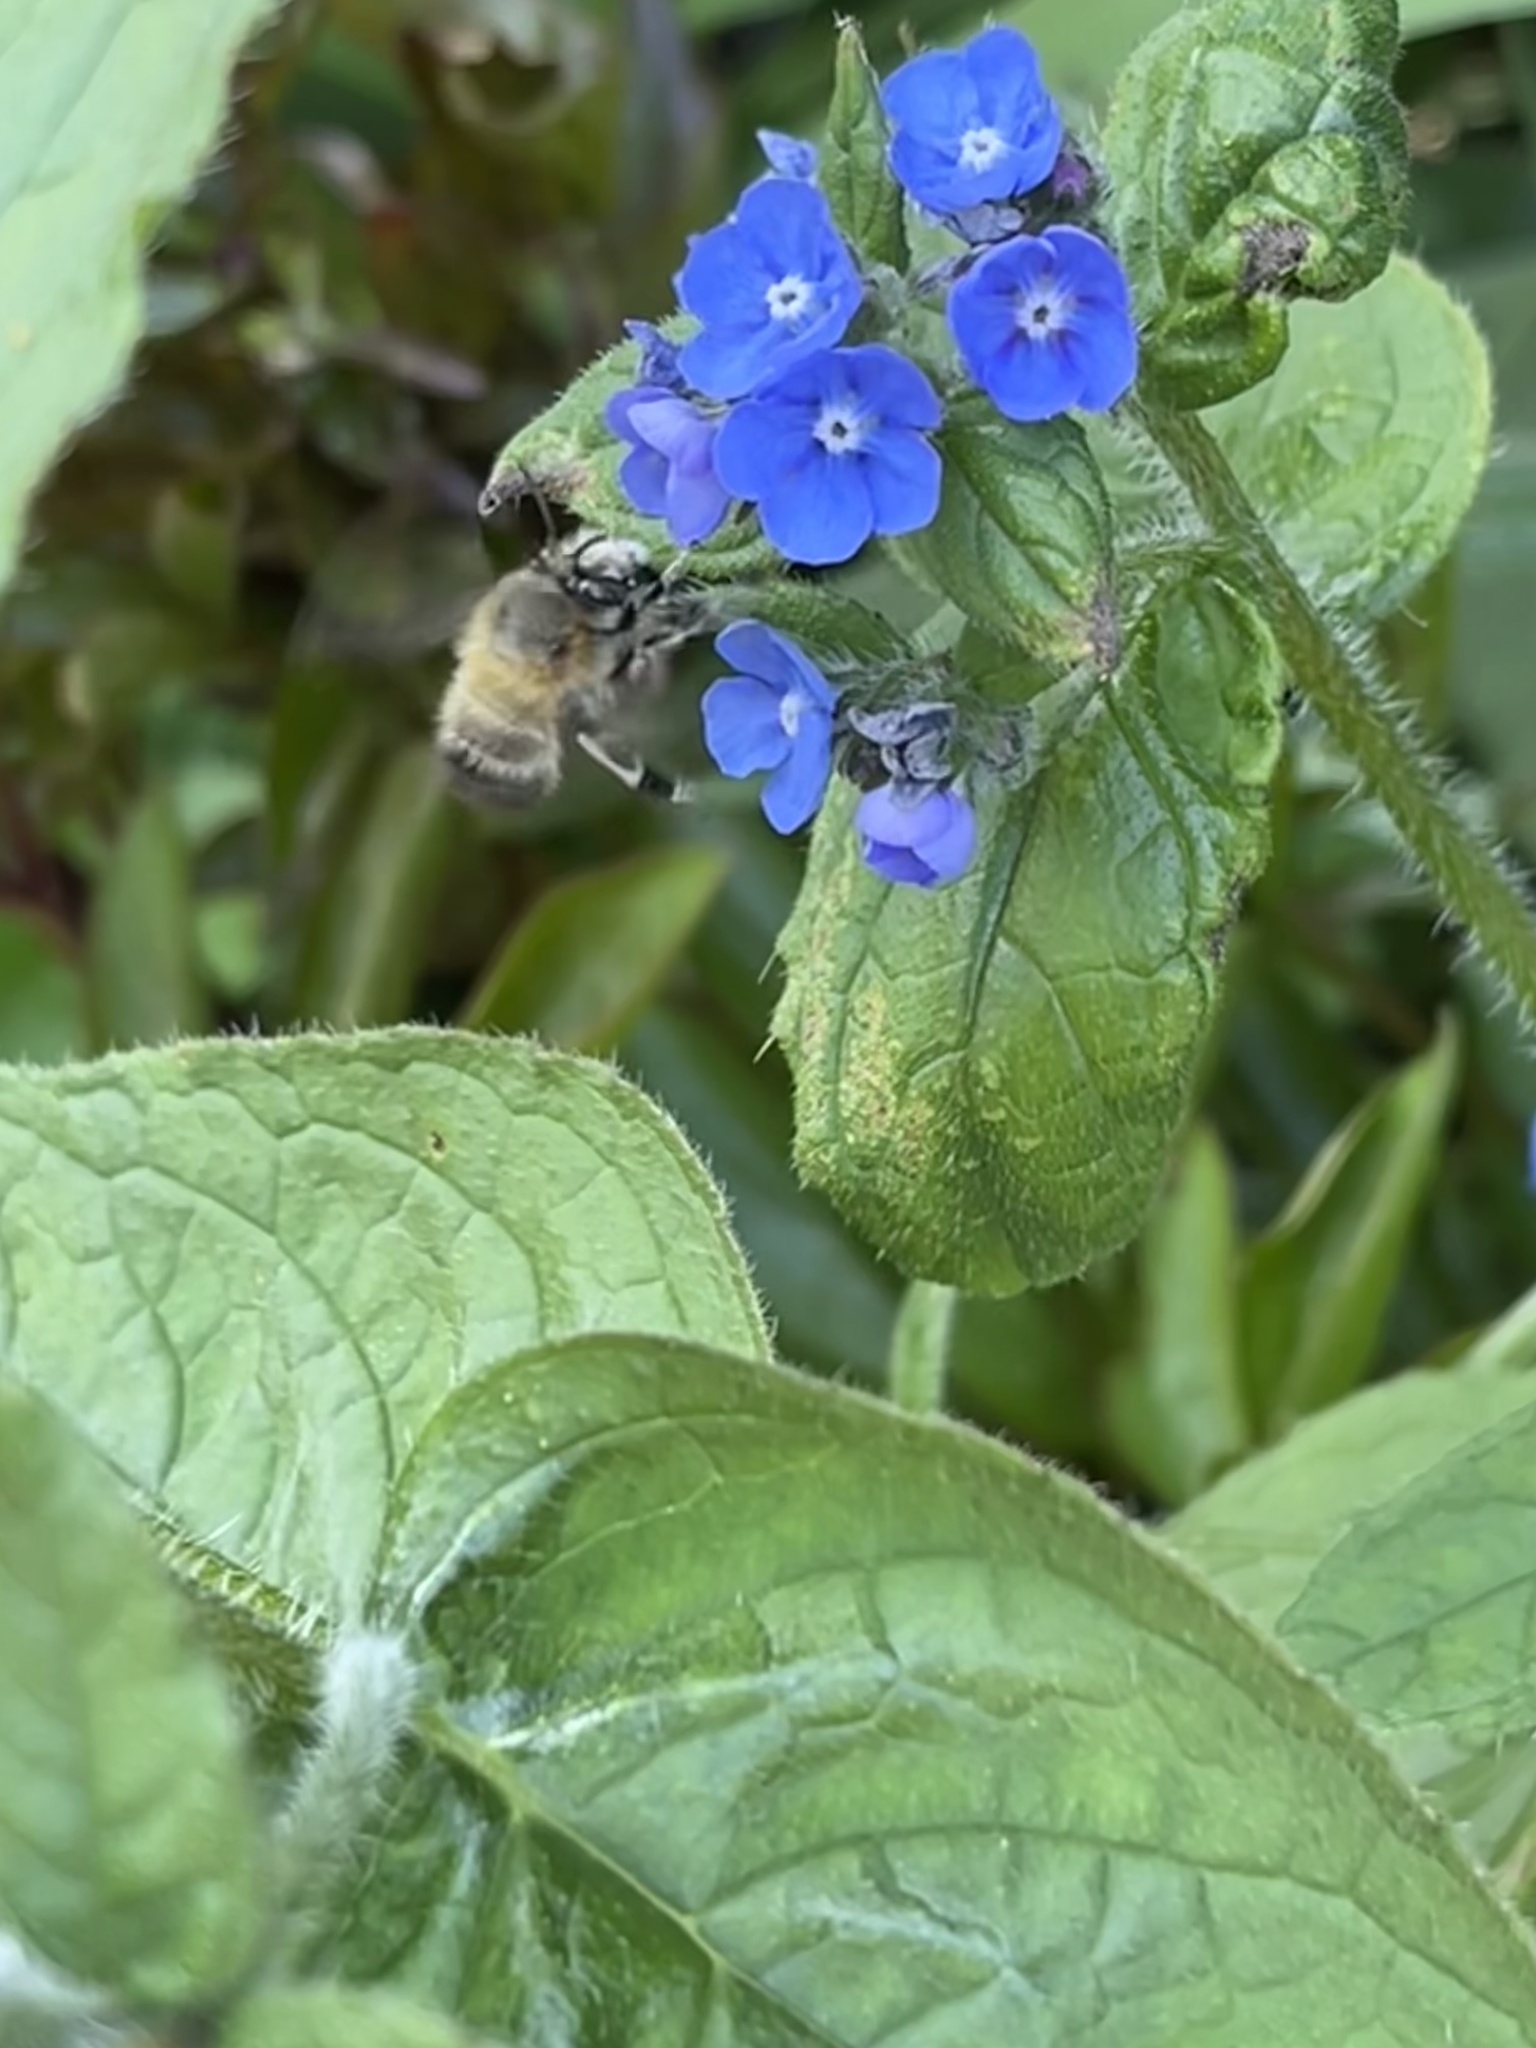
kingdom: Animalia
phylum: Arthropoda
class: Insecta
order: Hymenoptera
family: Apidae
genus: Anthophora
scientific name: Anthophora plumipes
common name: Hairy-footed flower bee
